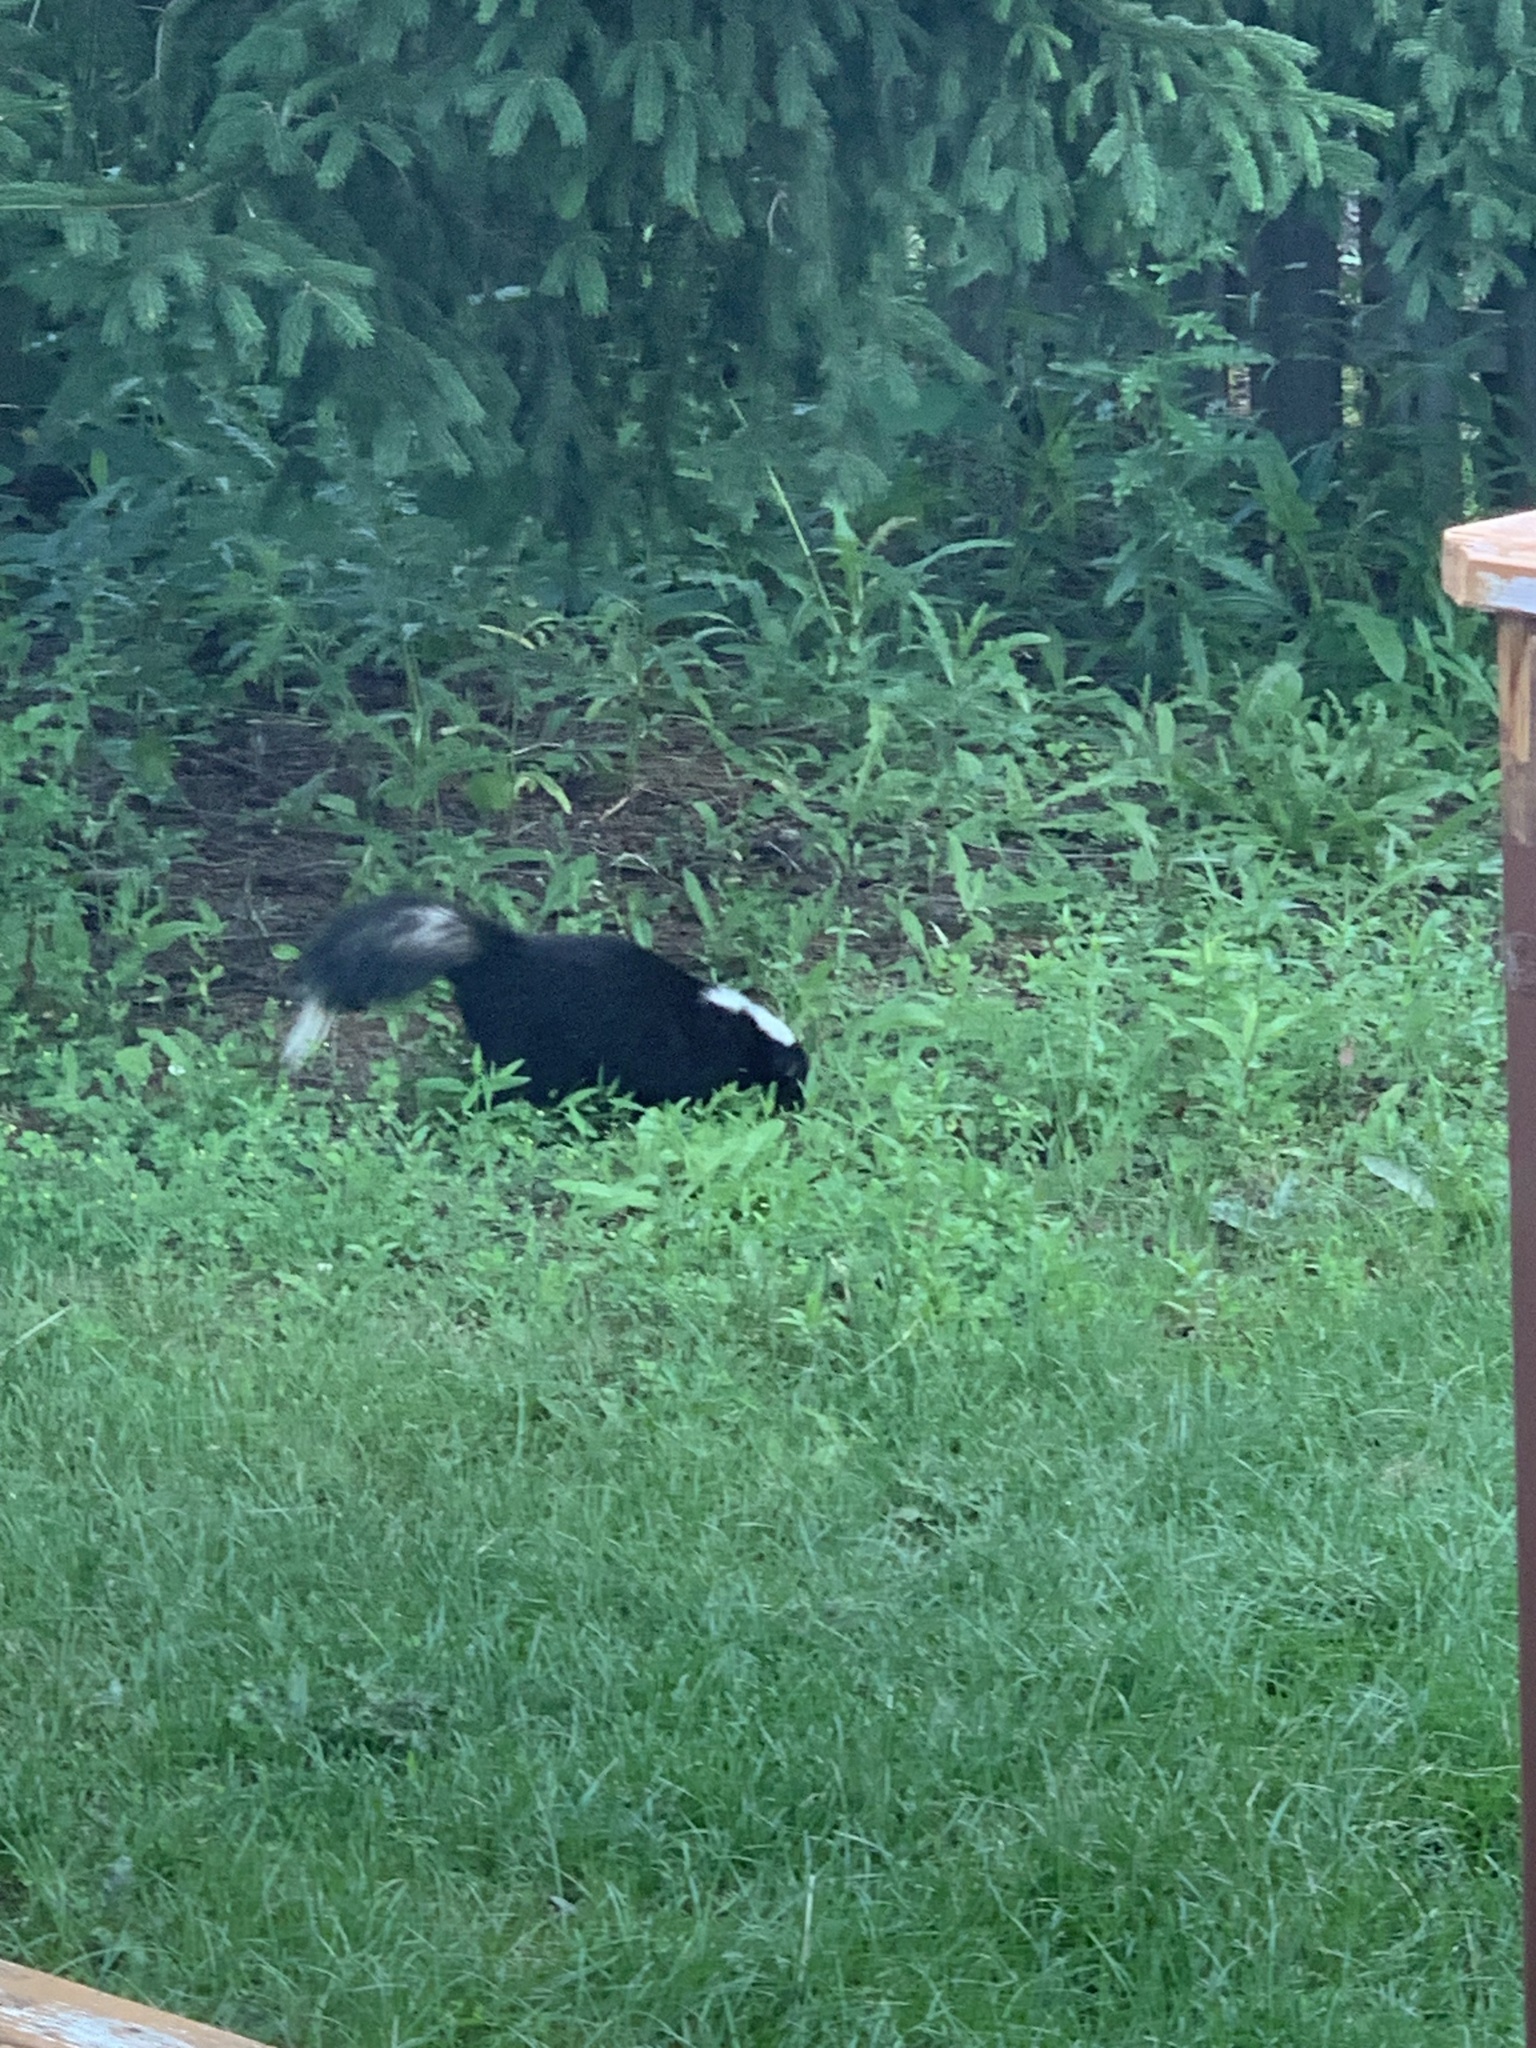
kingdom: Animalia
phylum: Chordata
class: Mammalia
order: Carnivora
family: Mephitidae
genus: Mephitis
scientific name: Mephitis mephitis
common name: Striped skunk
